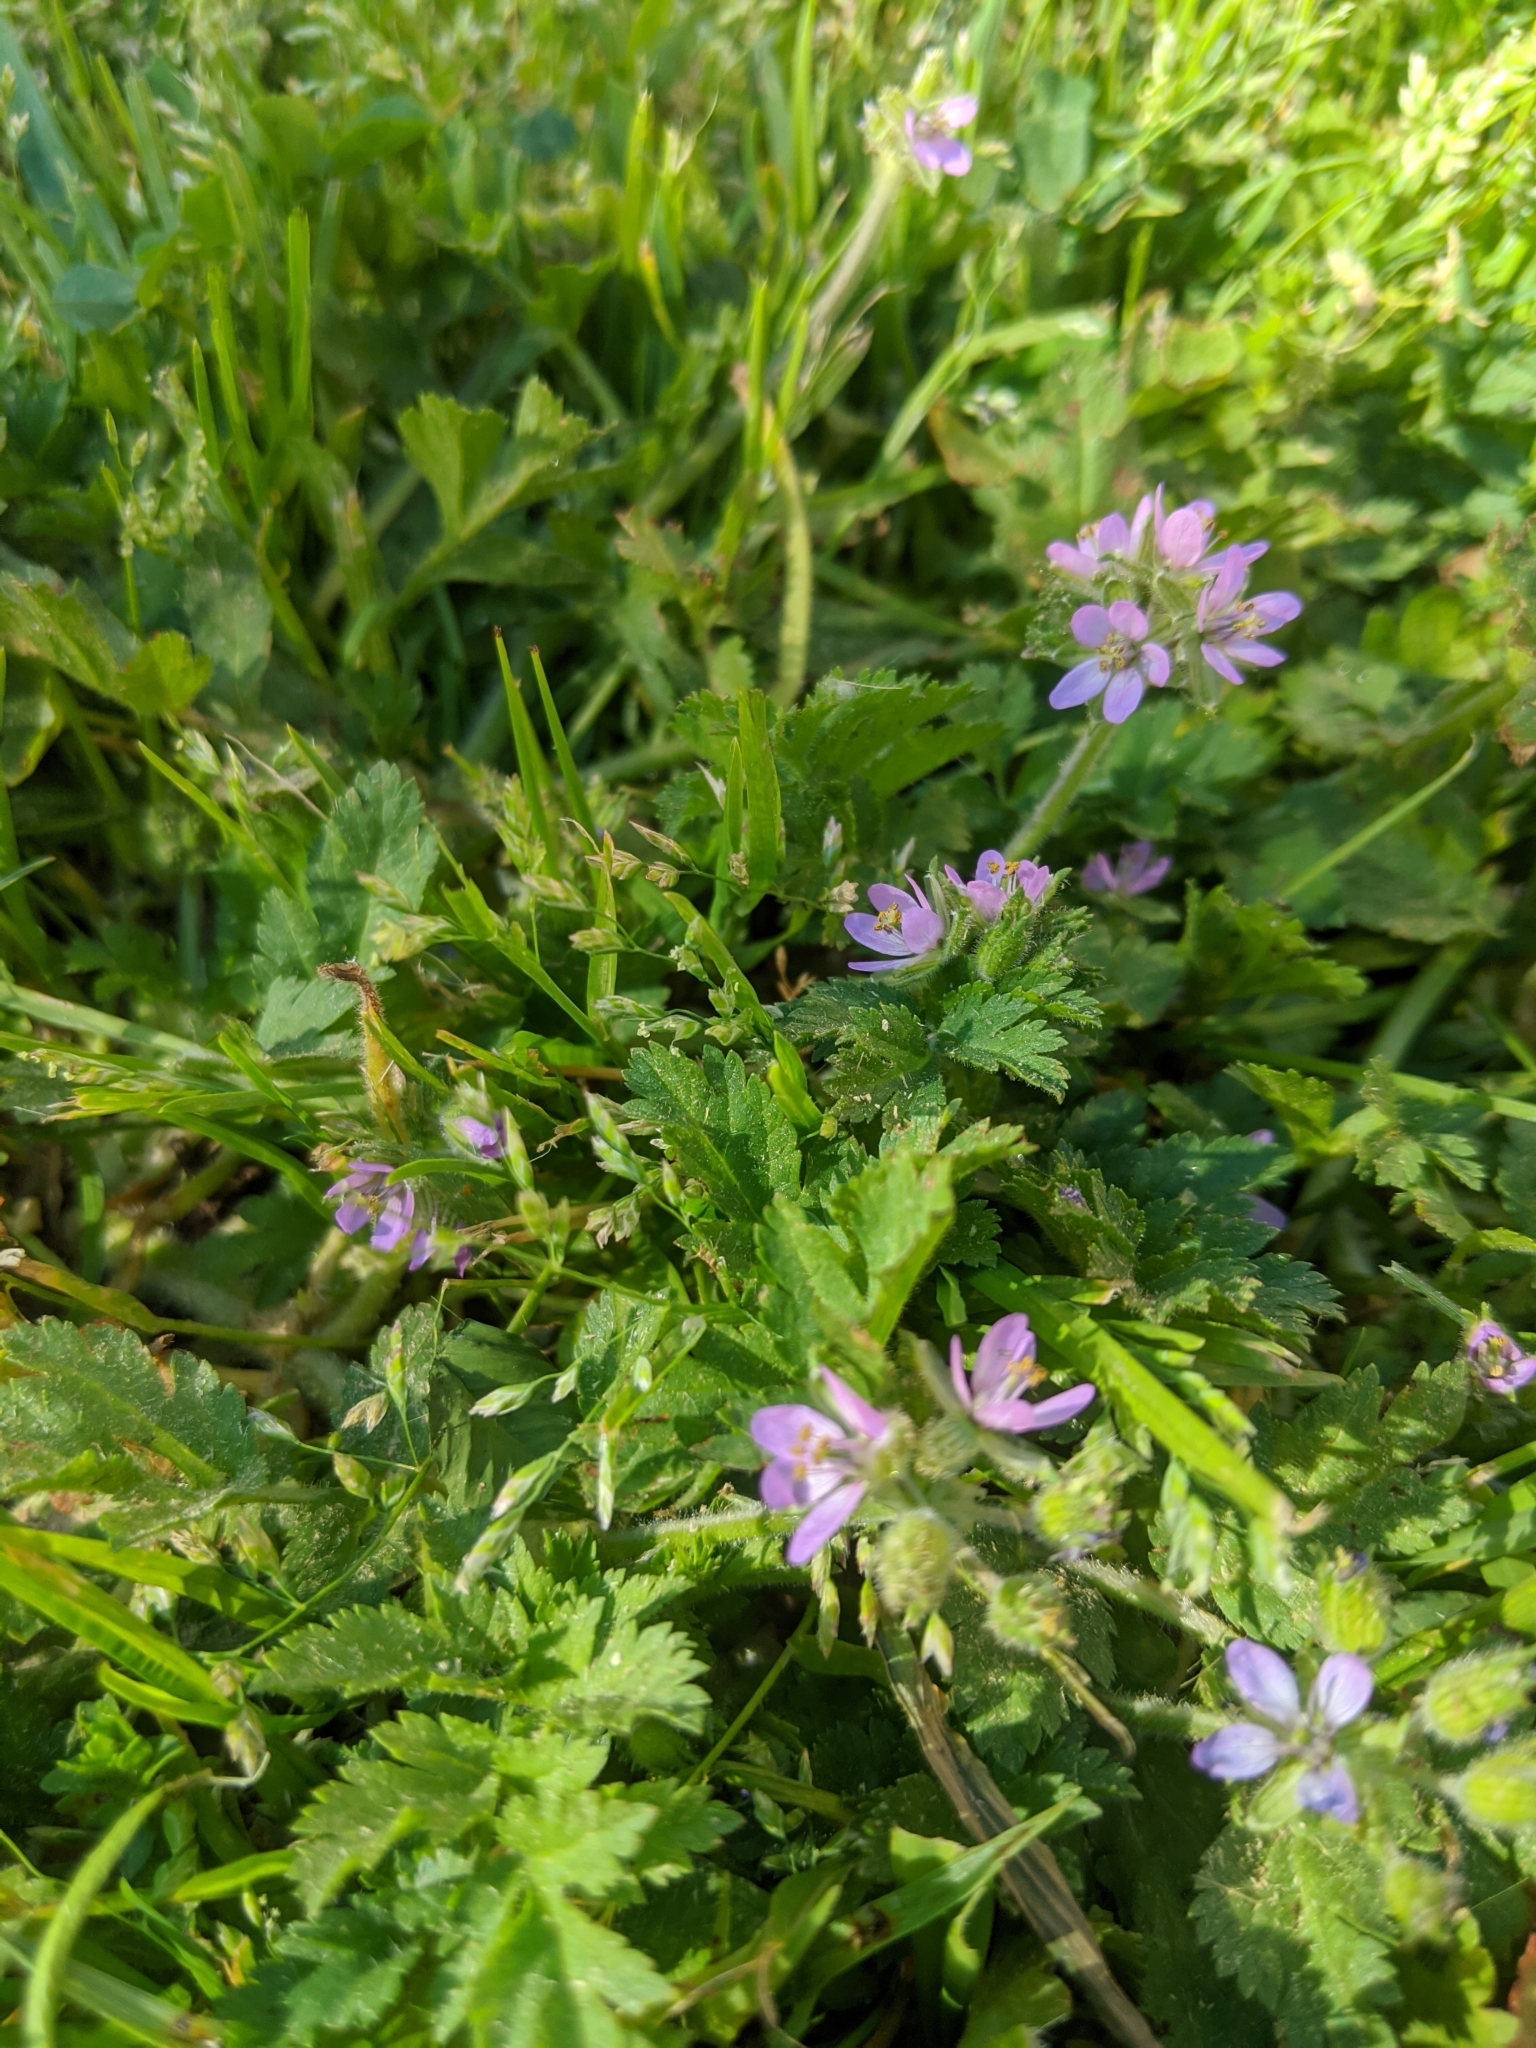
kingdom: Plantae
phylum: Tracheophyta
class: Magnoliopsida
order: Geraniales
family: Geraniaceae
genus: Erodium
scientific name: Erodium moschatum
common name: Musk stork's-bill
